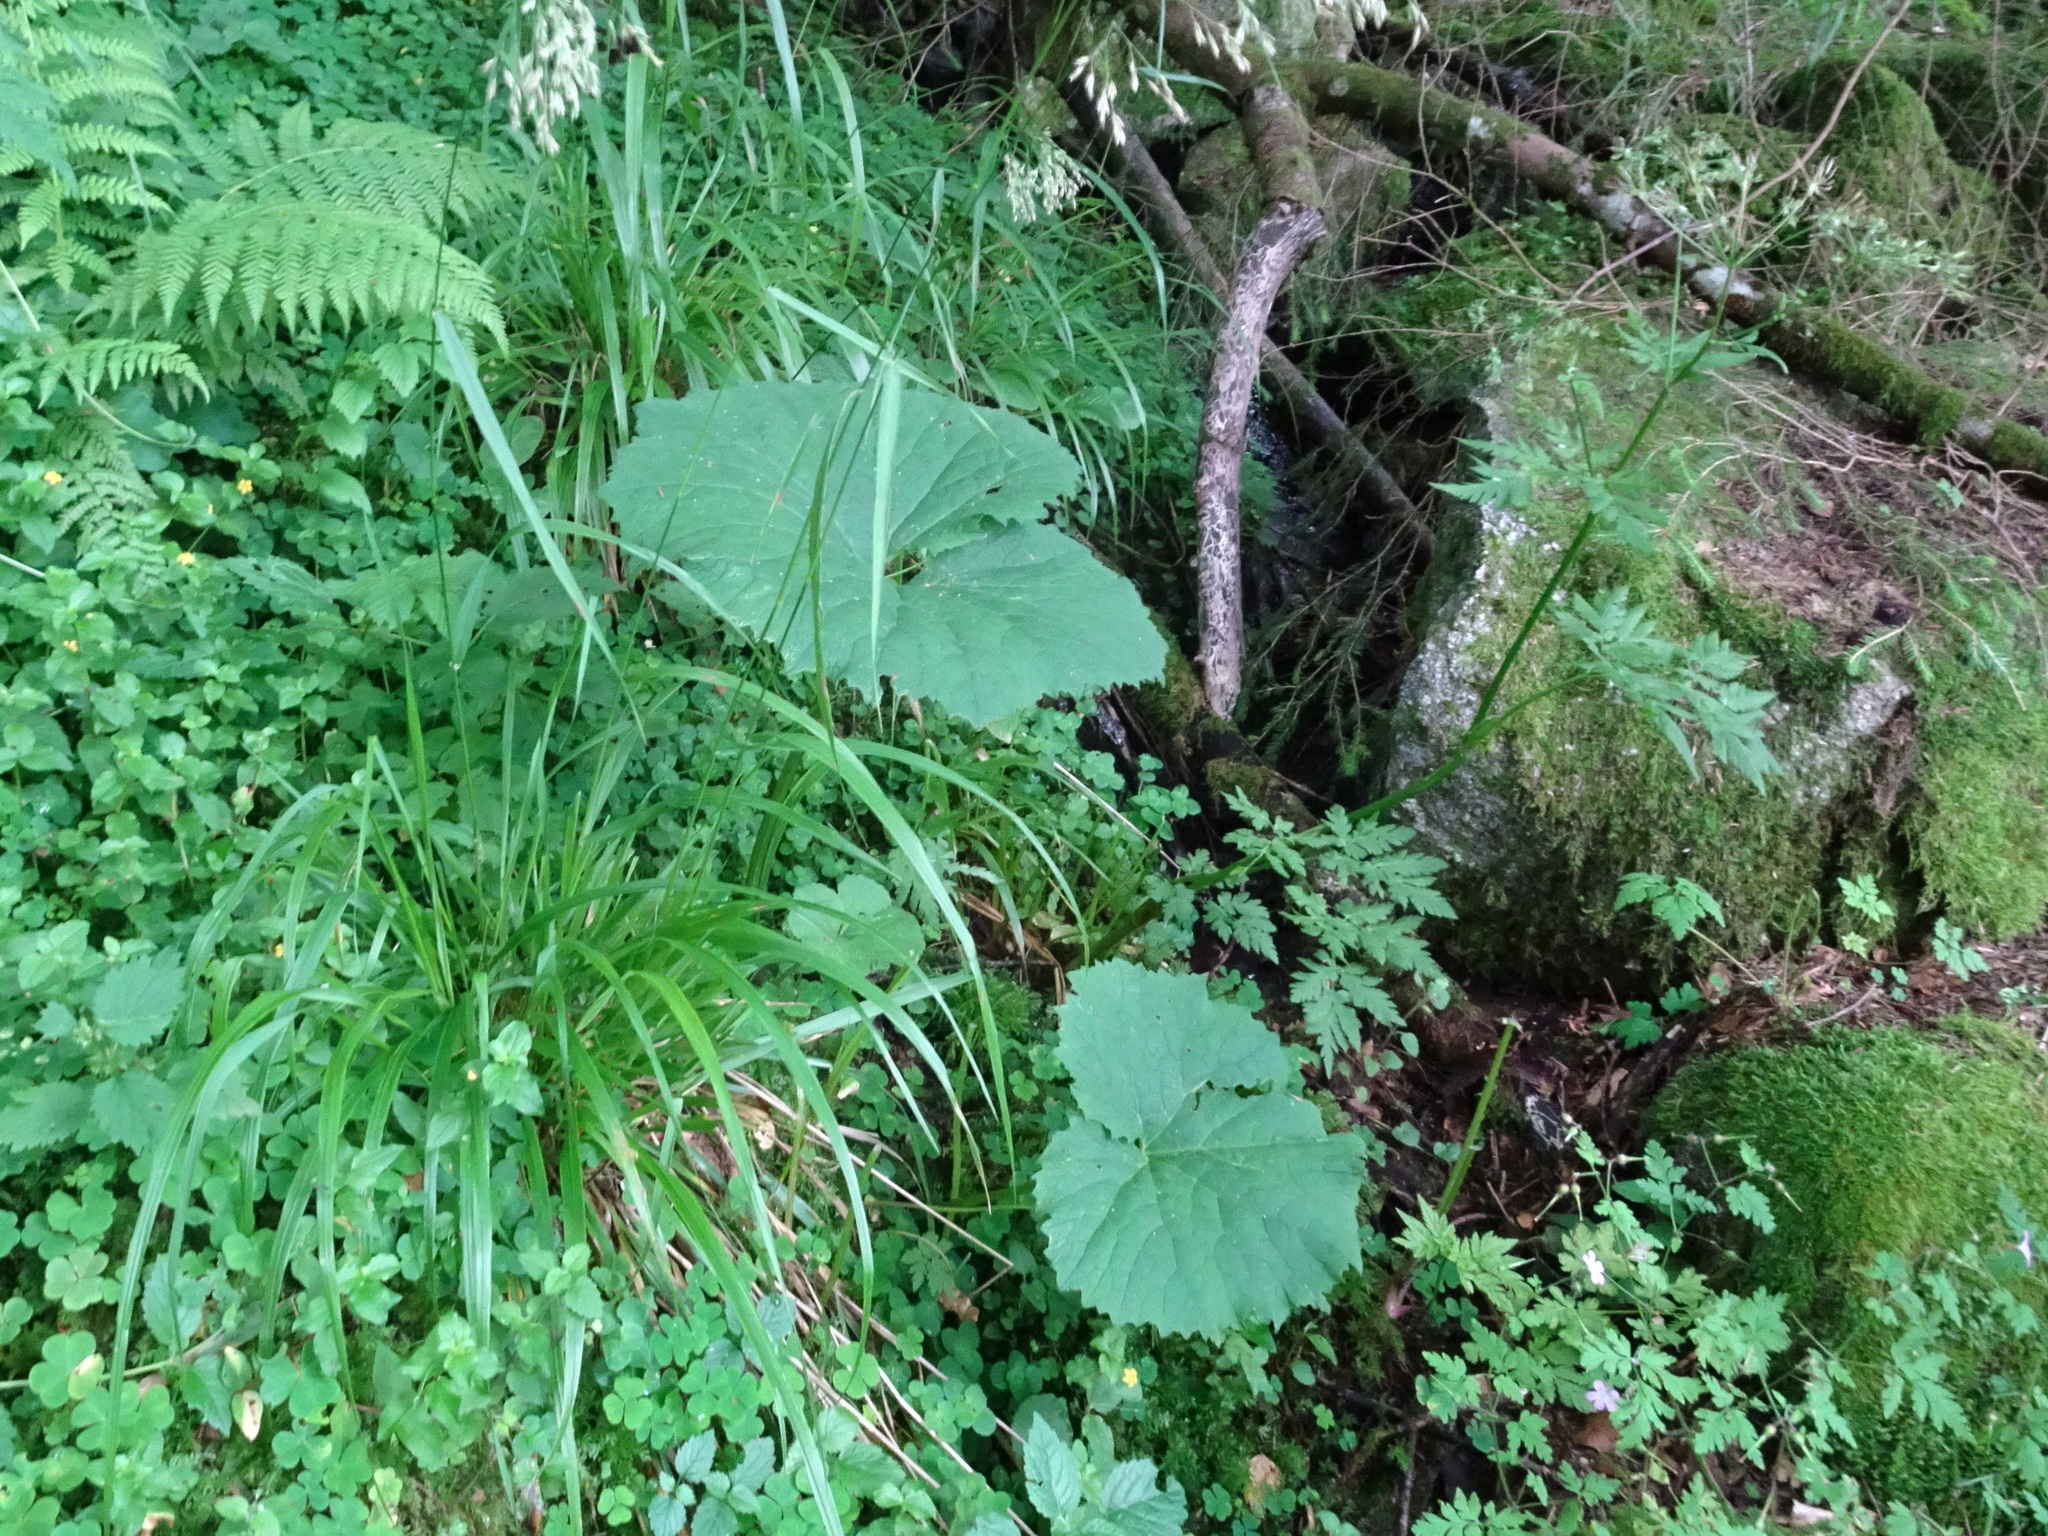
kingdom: Plantae
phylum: Tracheophyta
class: Magnoliopsida
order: Asterales
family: Asteraceae
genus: Adenostyles
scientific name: Adenostyles alliariae
